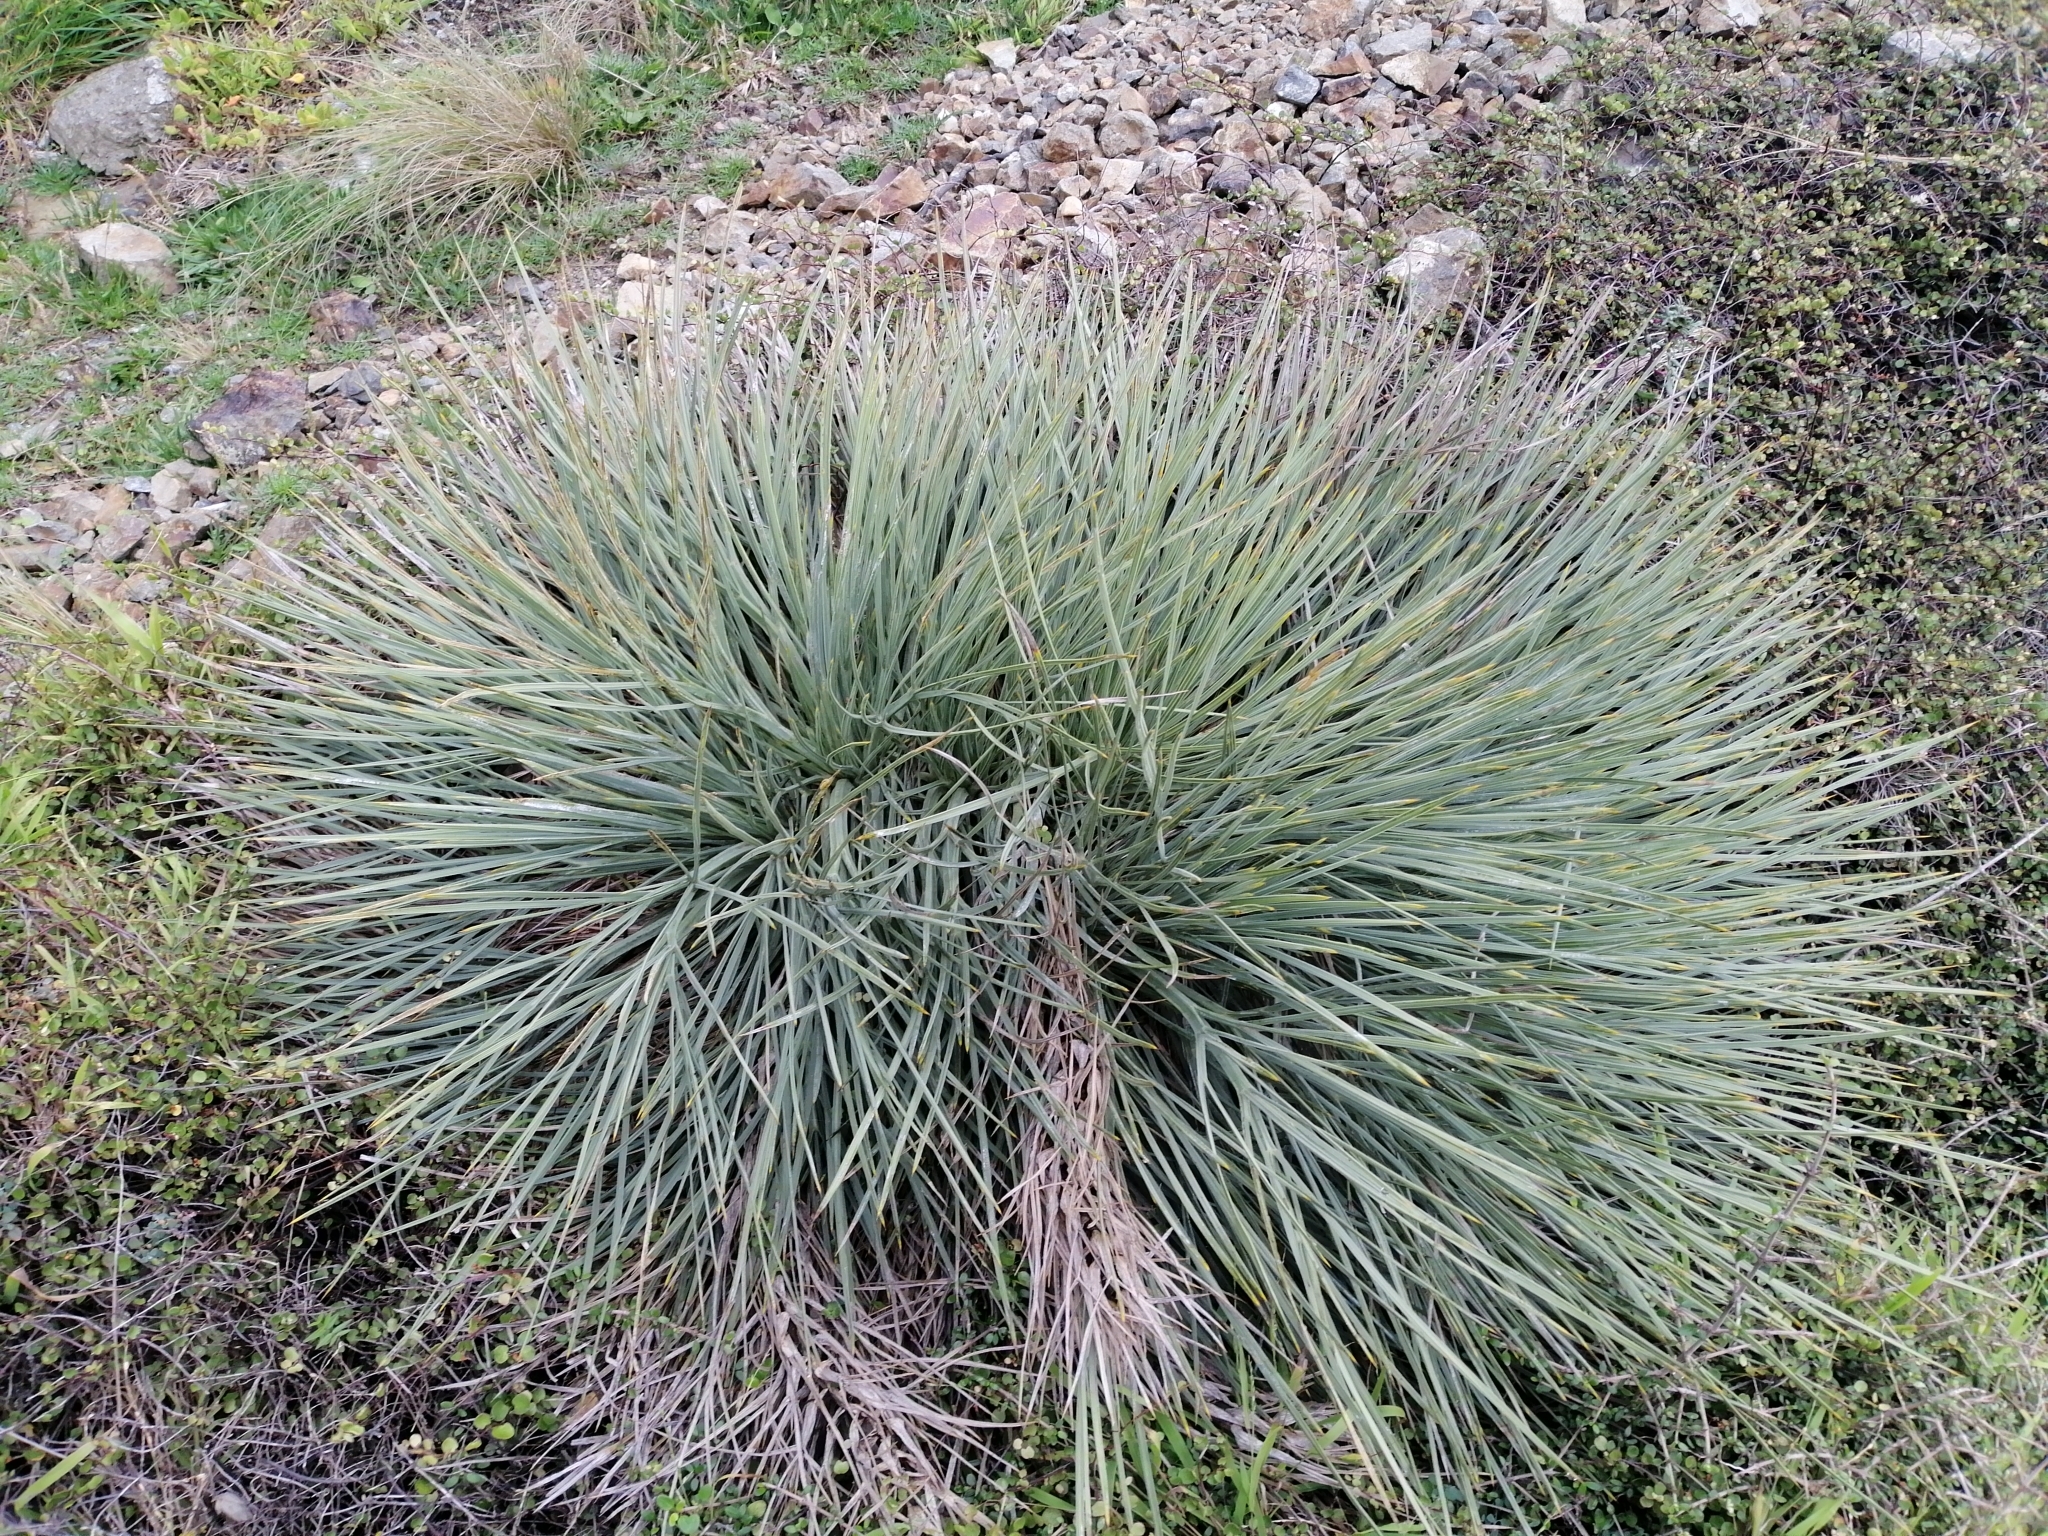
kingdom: Plantae
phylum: Tracheophyta
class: Magnoliopsida
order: Apiales
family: Apiaceae
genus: Aciphylla
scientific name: Aciphylla squarrosa
